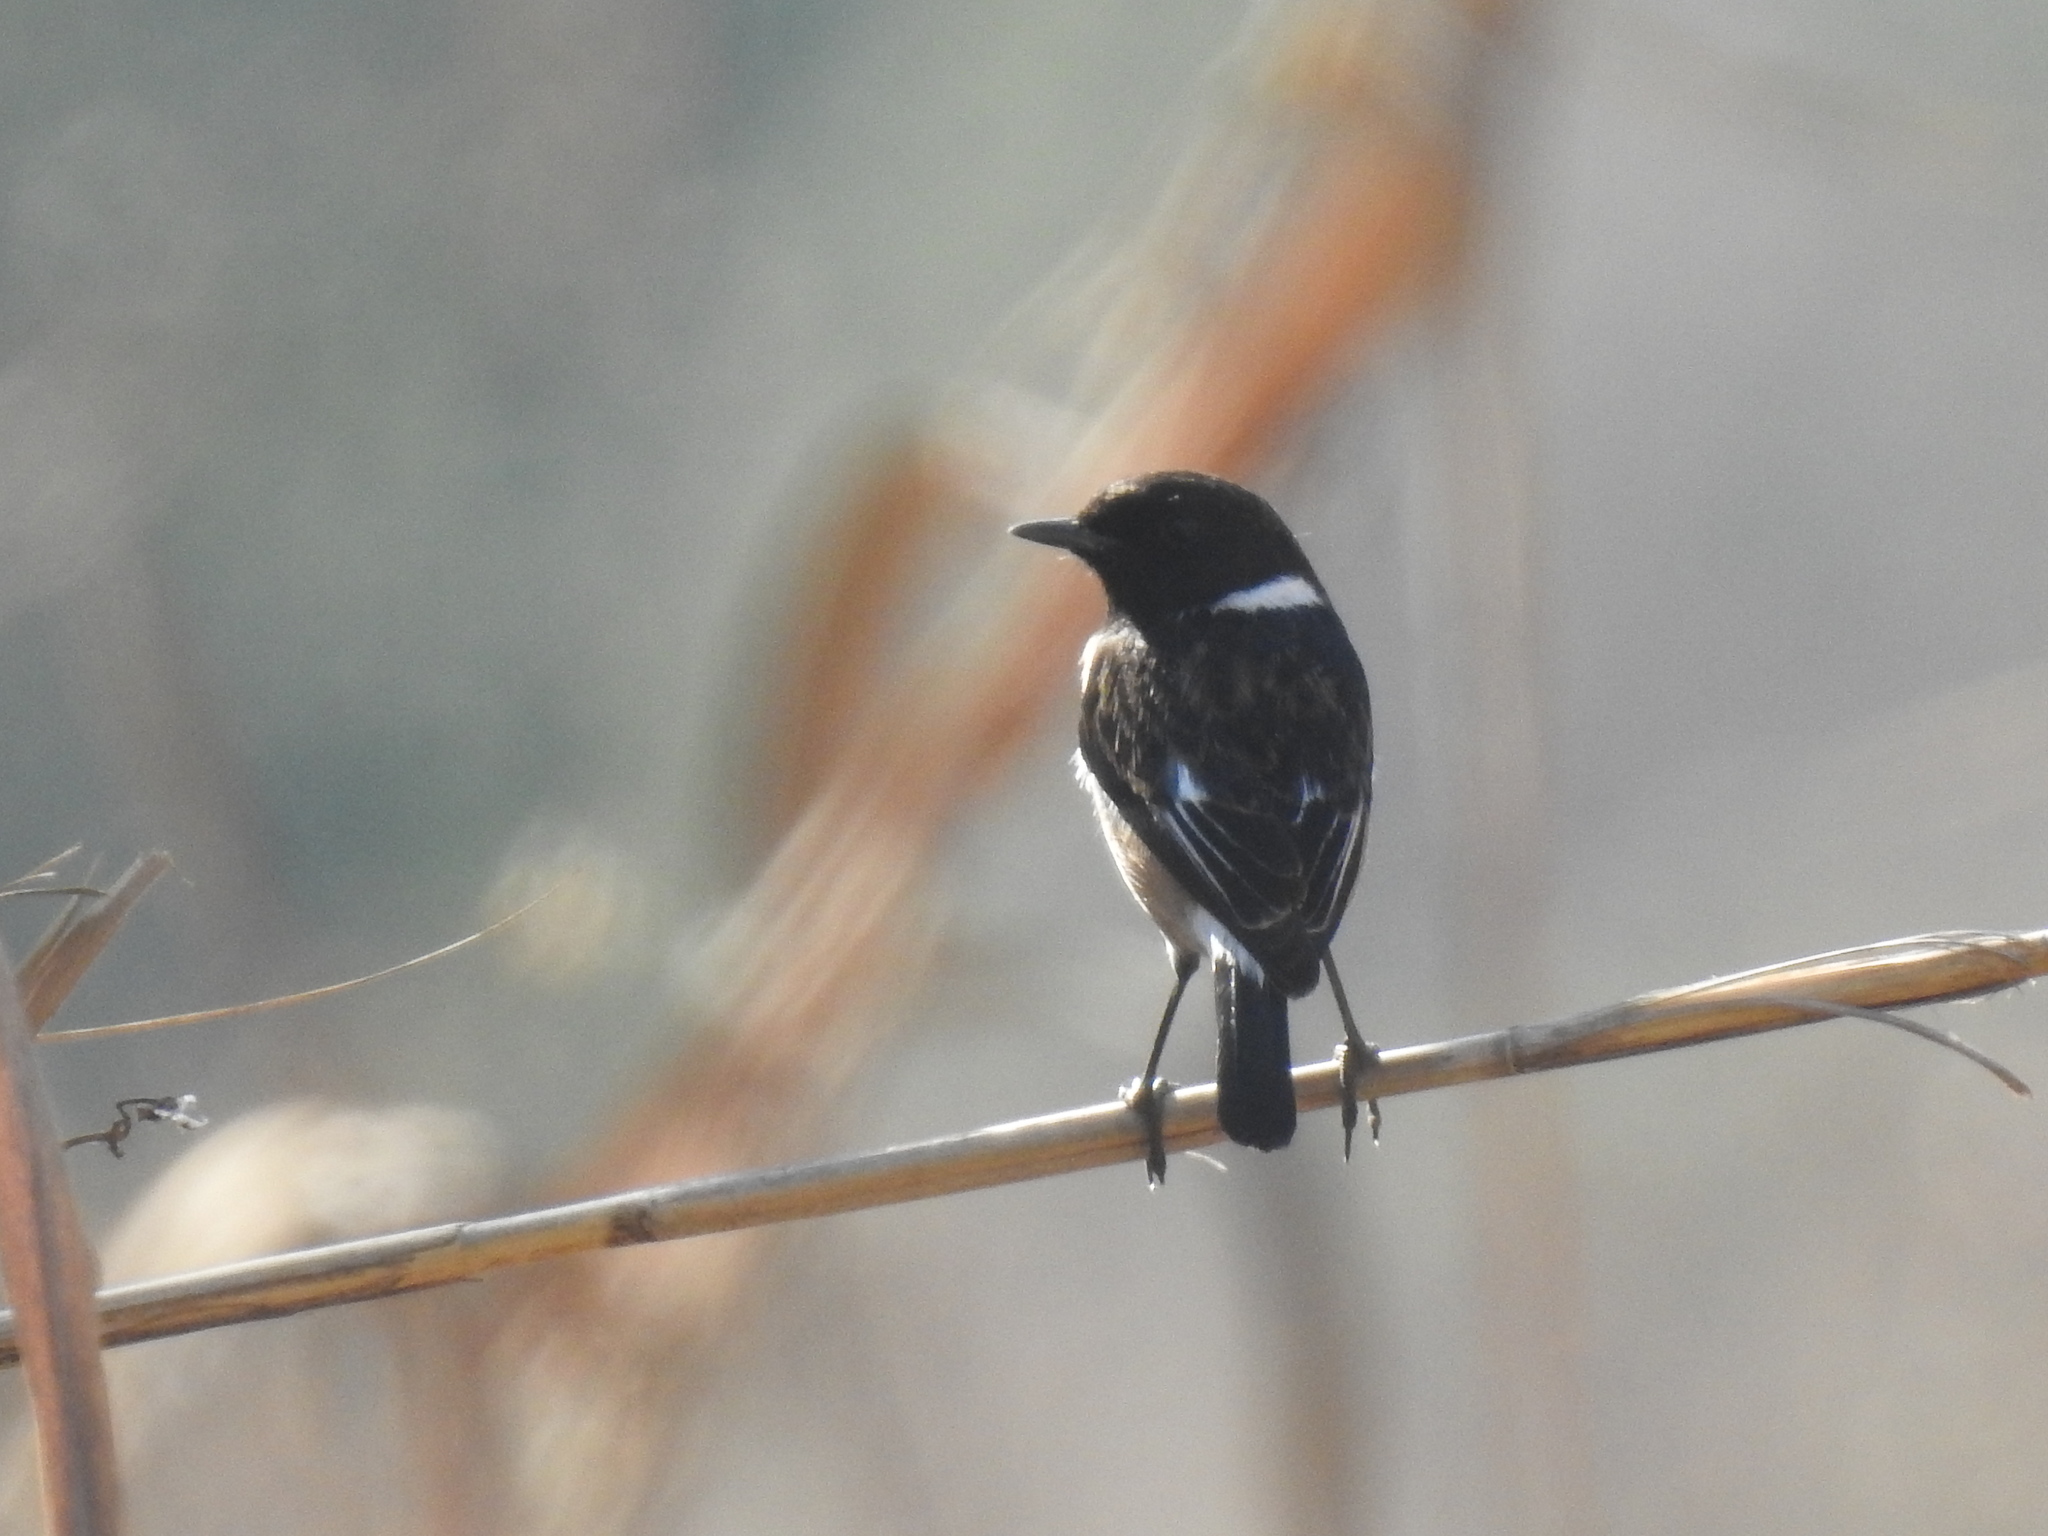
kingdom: Animalia
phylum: Chordata
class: Aves
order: Passeriformes
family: Muscicapidae
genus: Saxicola
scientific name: Saxicola torquatus
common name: African stonechat
